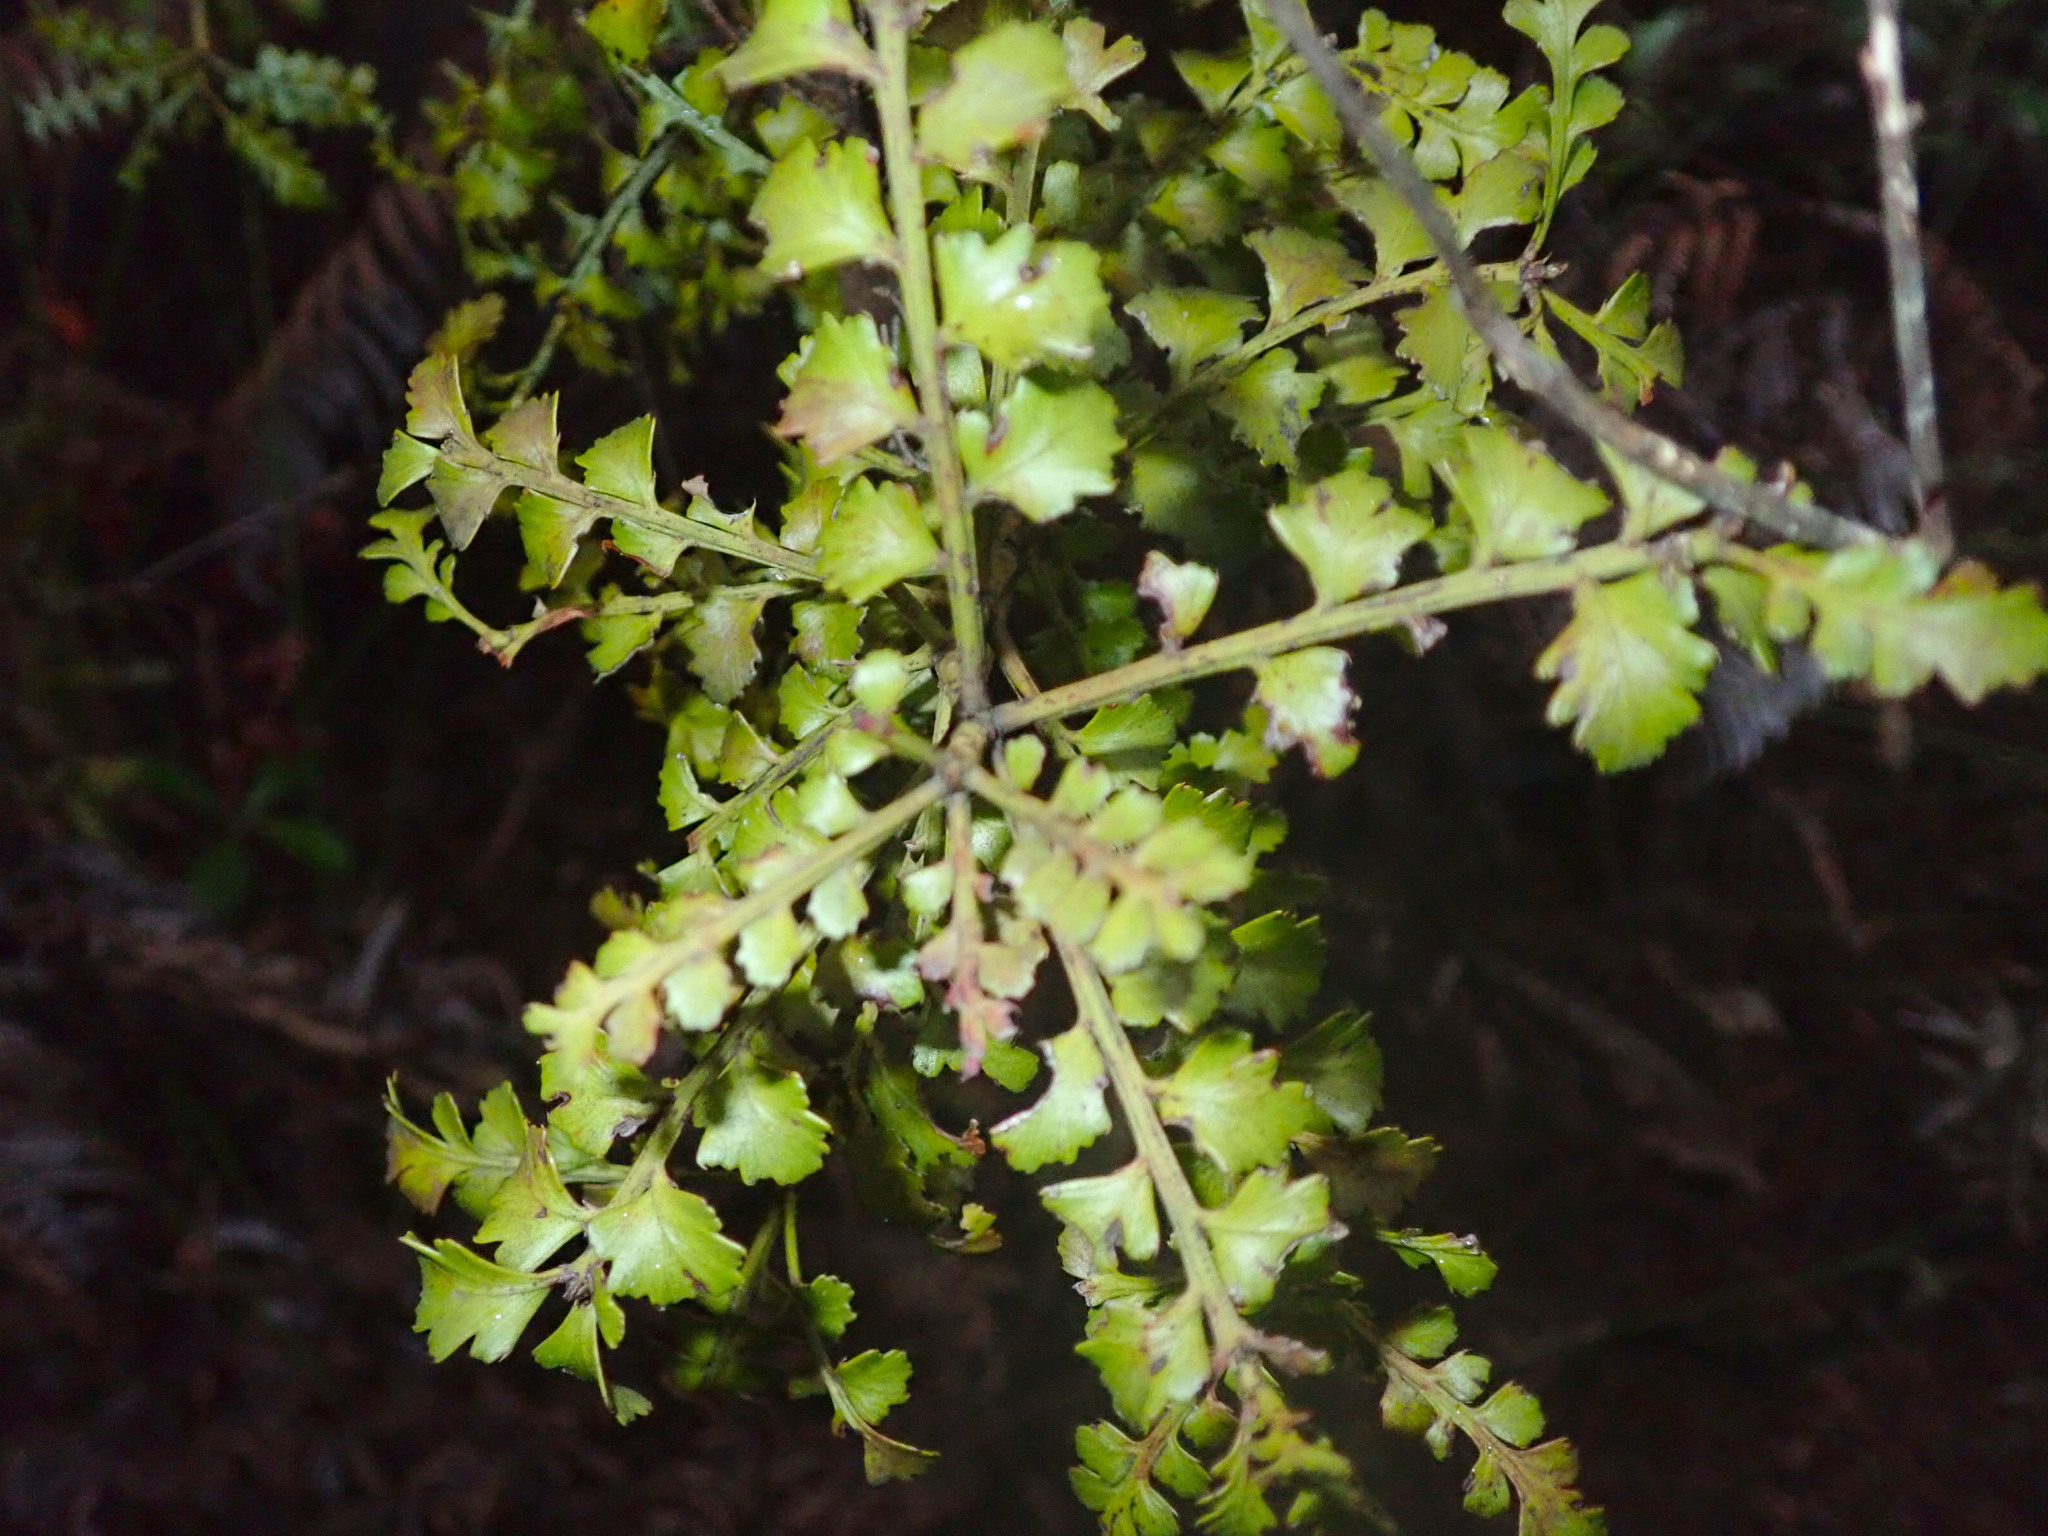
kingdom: Plantae
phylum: Tracheophyta
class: Pinopsida
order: Pinales
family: Phyllocladaceae
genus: Phyllocladus
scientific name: Phyllocladus trichomanoides
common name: Celery pine
